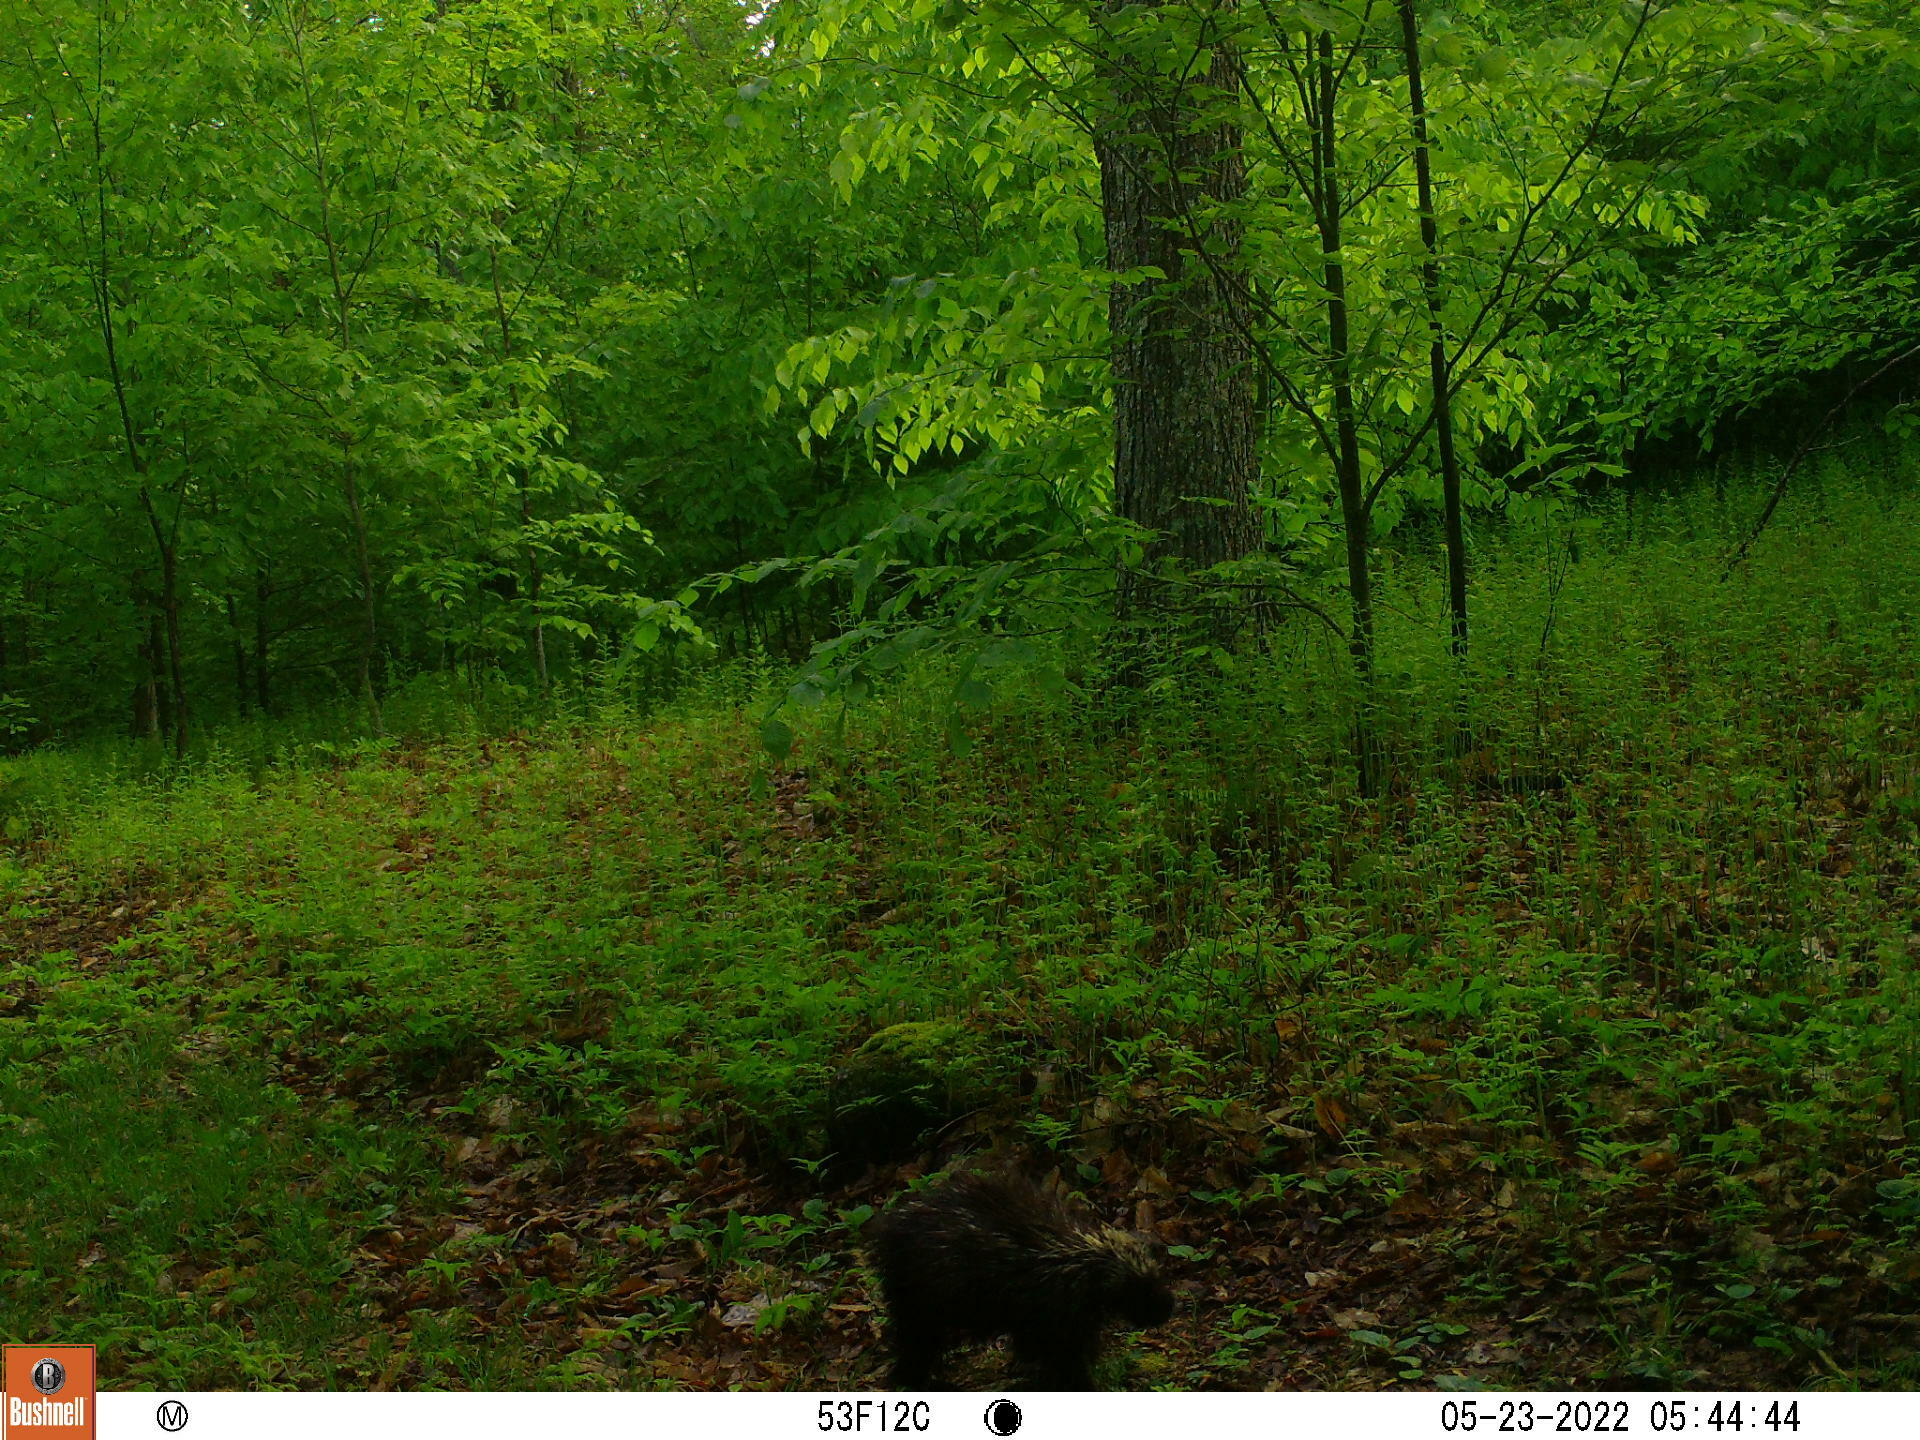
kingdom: Animalia
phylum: Chordata
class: Mammalia
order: Rodentia
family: Erethizontidae
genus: Erethizon
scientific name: Erethizon dorsatus
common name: North american porcupine
